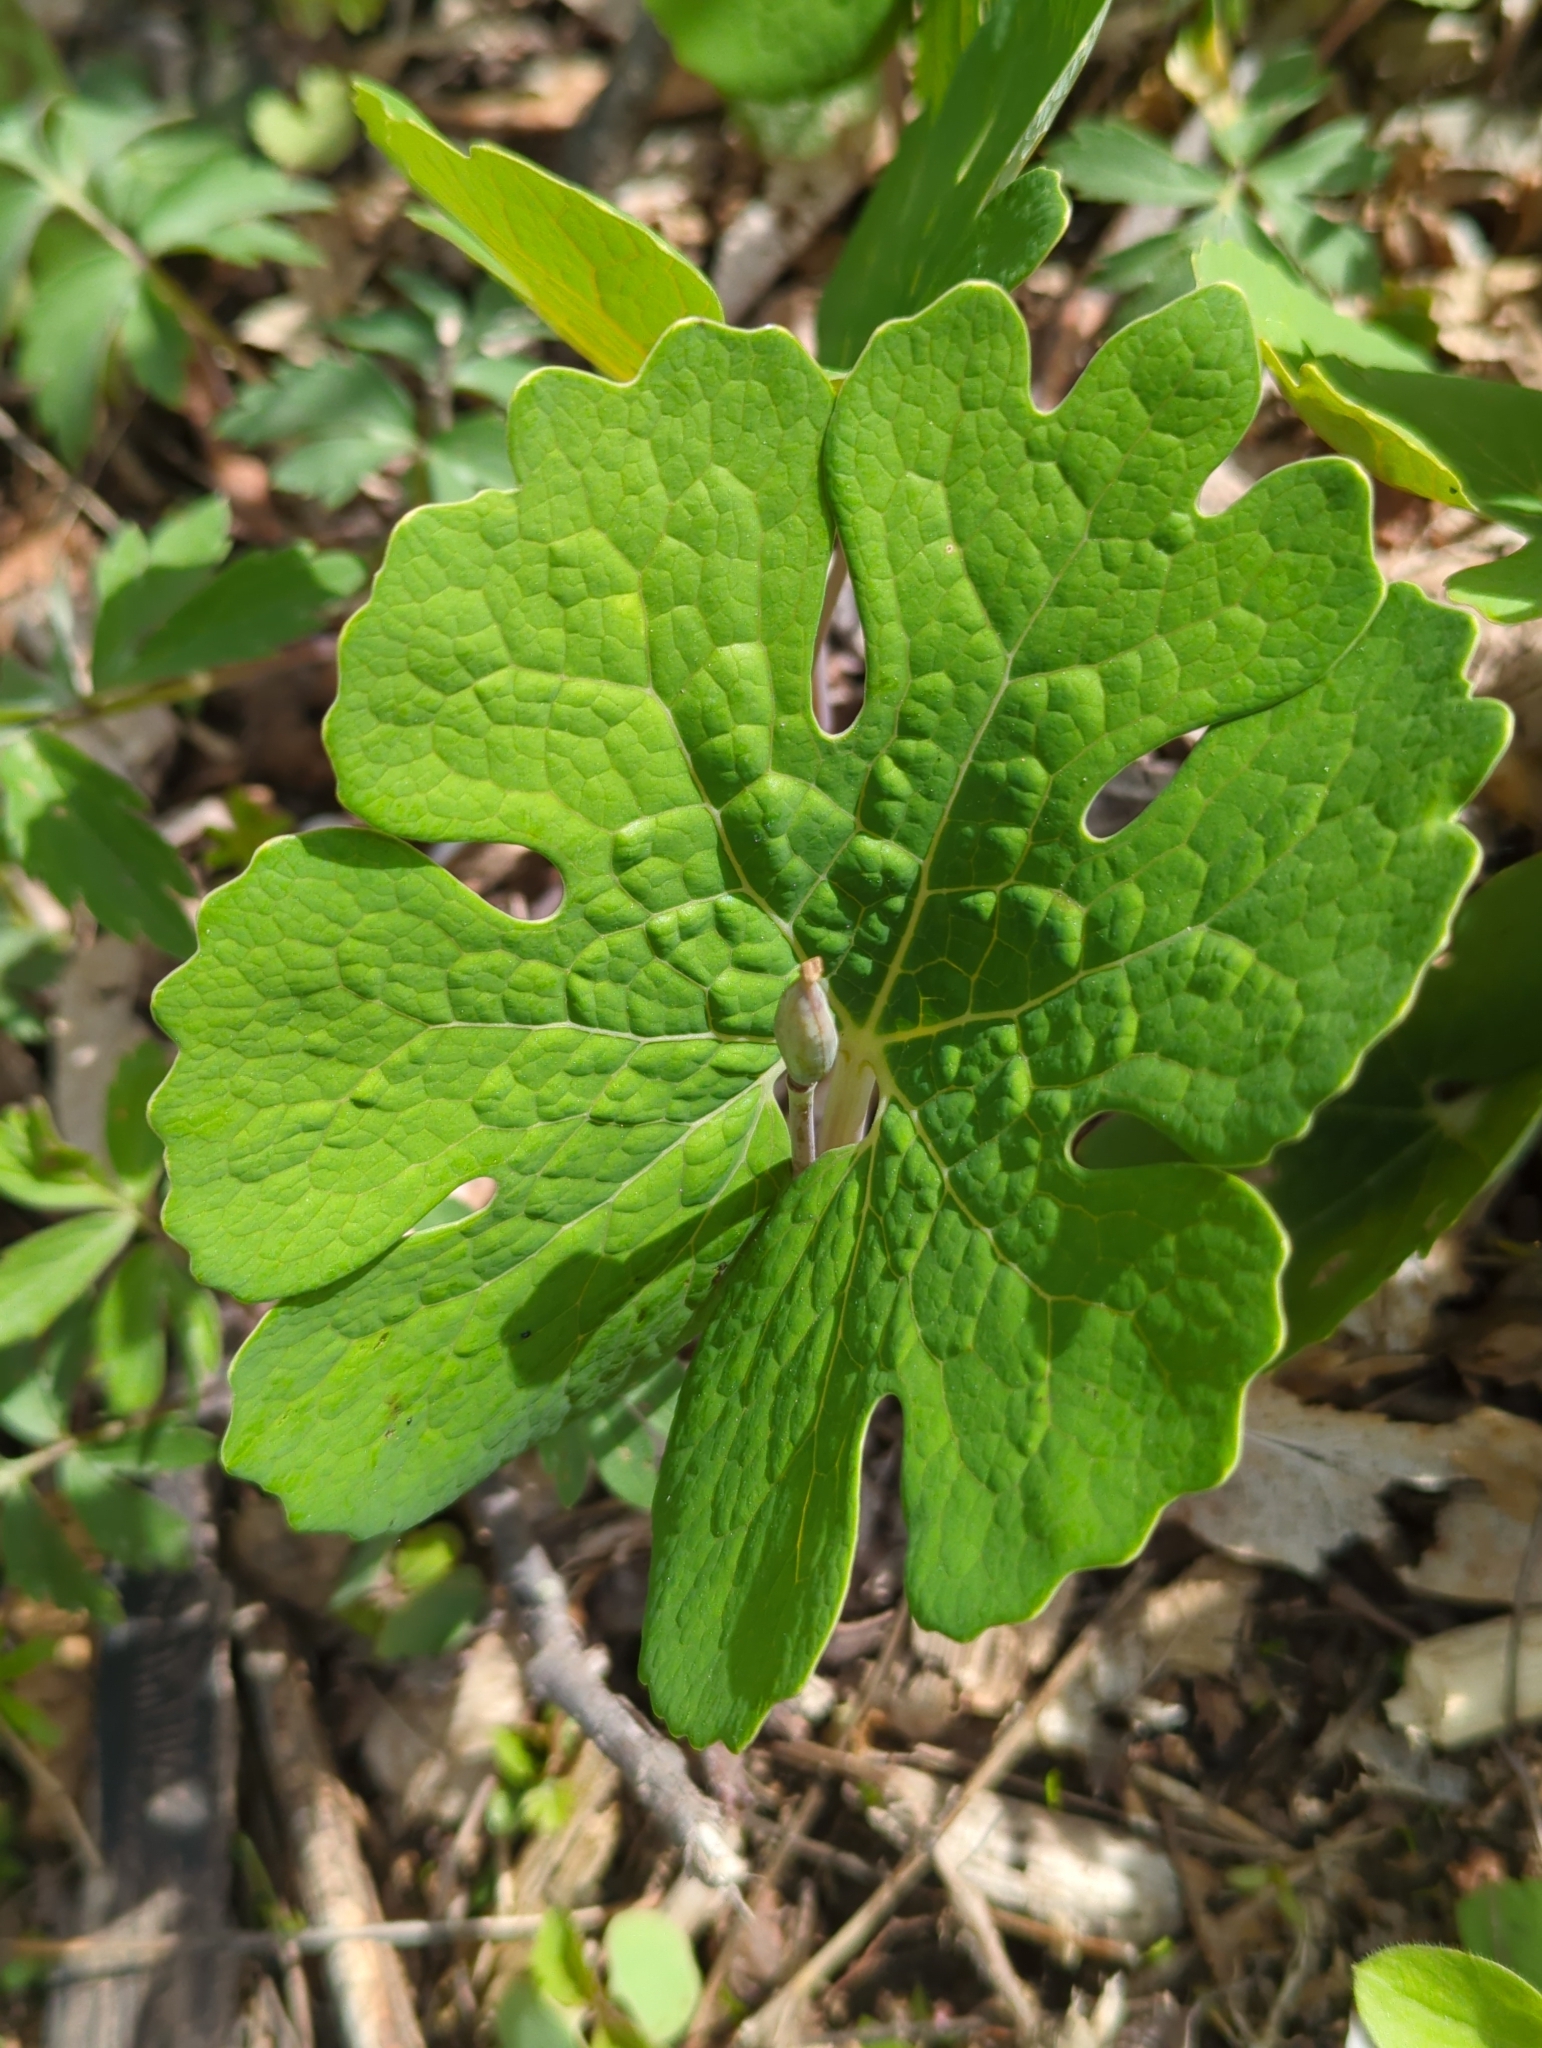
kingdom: Plantae
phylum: Tracheophyta
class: Magnoliopsida
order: Ranunculales
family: Papaveraceae
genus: Sanguinaria
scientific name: Sanguinaria canadensis
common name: Bloodroot
